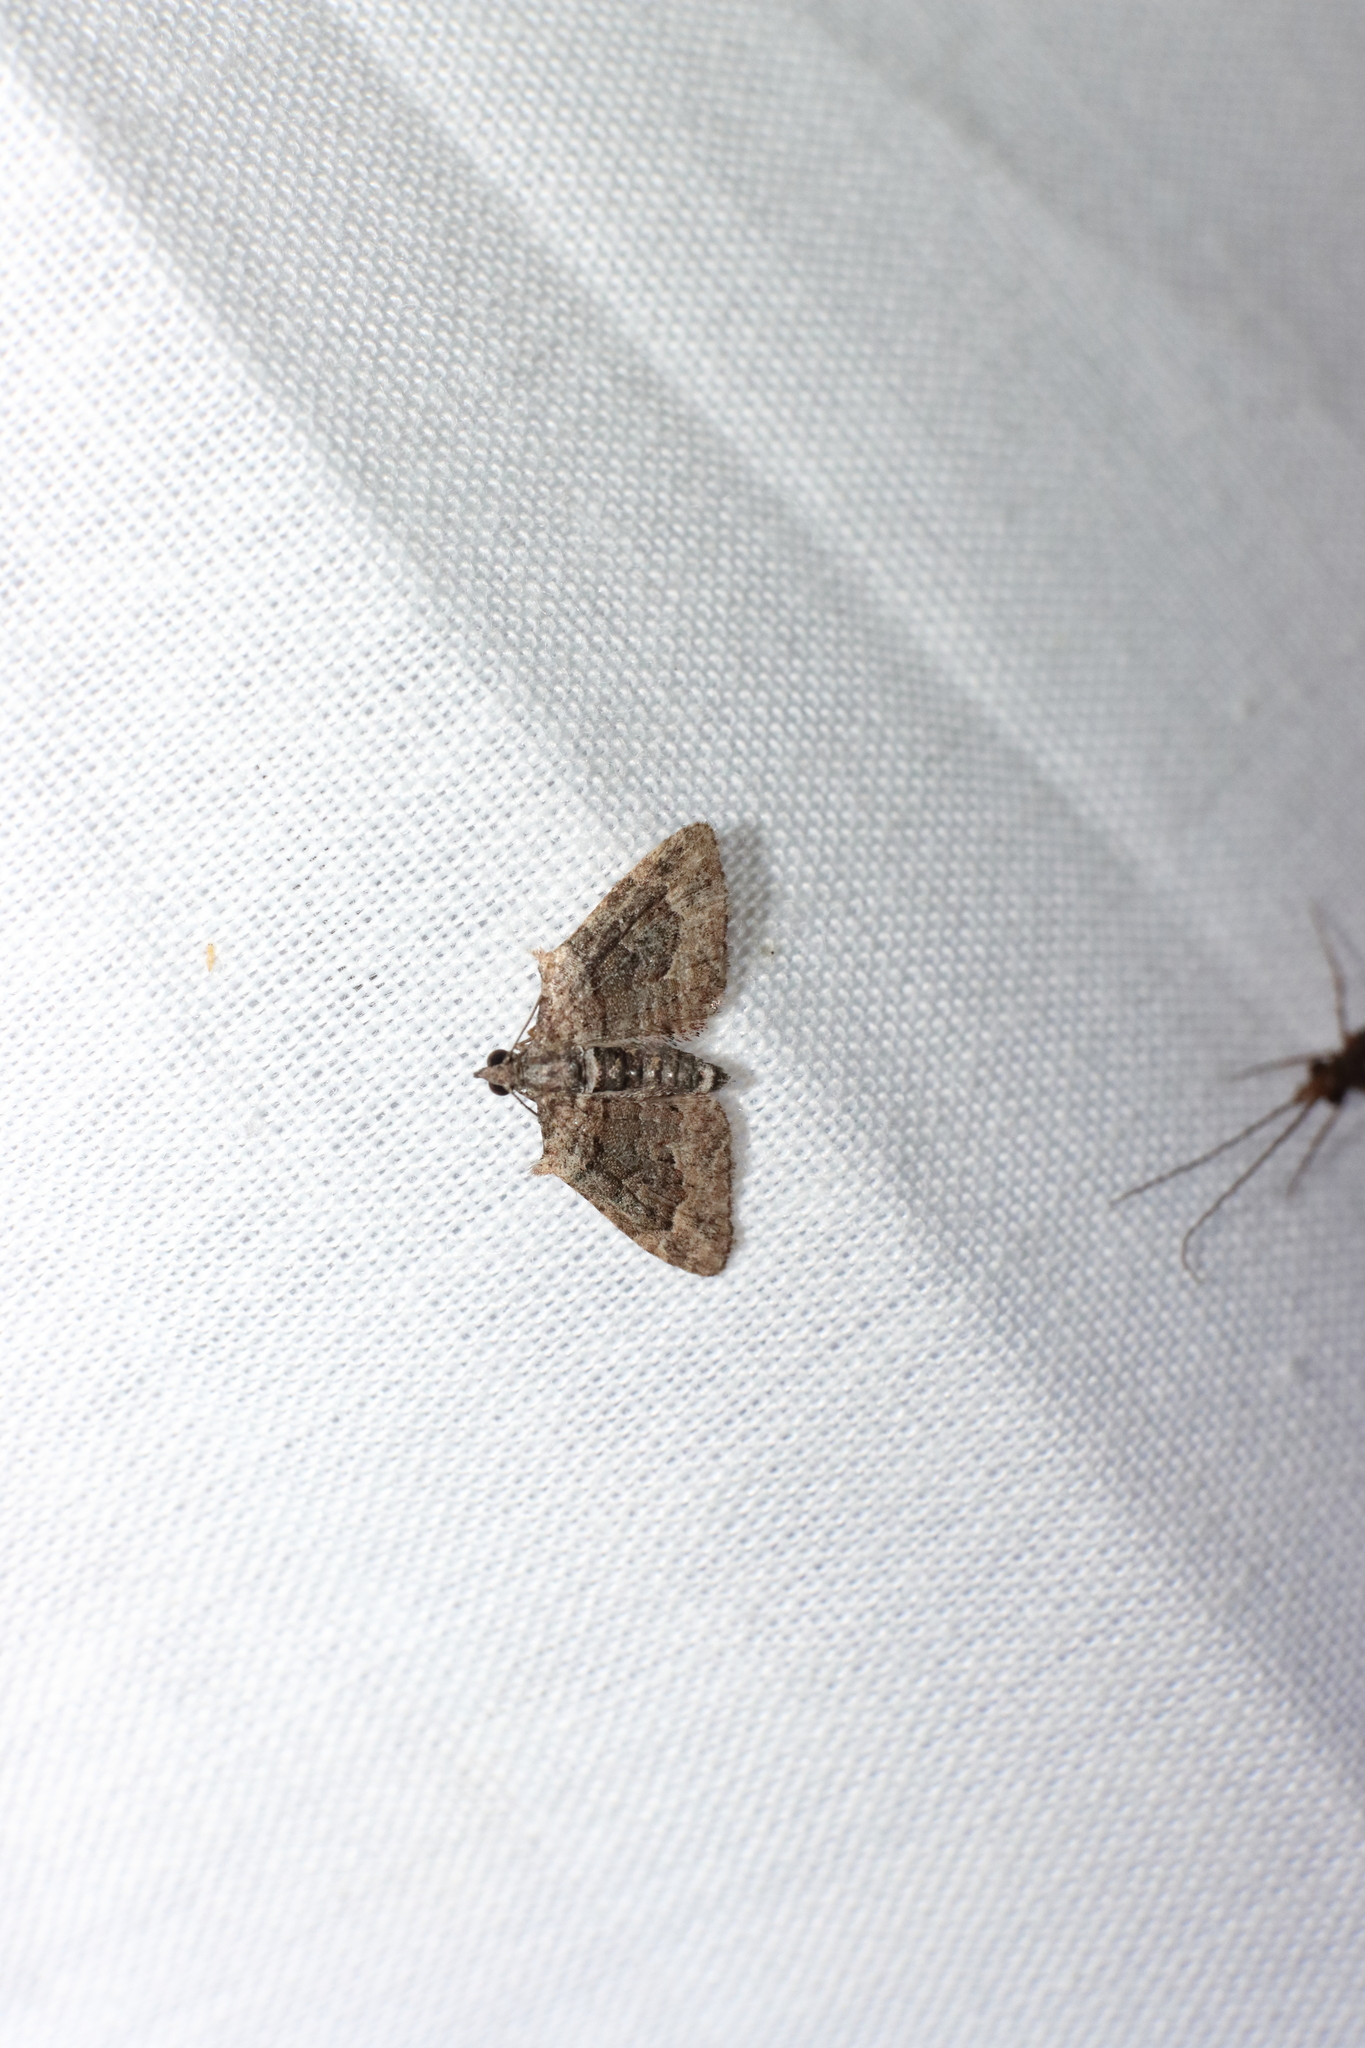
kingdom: Animalia
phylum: Arthropoda
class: Insecta
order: Lepidoptera
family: Geometridae
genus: Phrissogonus
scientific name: Phrissogonus laticostata
